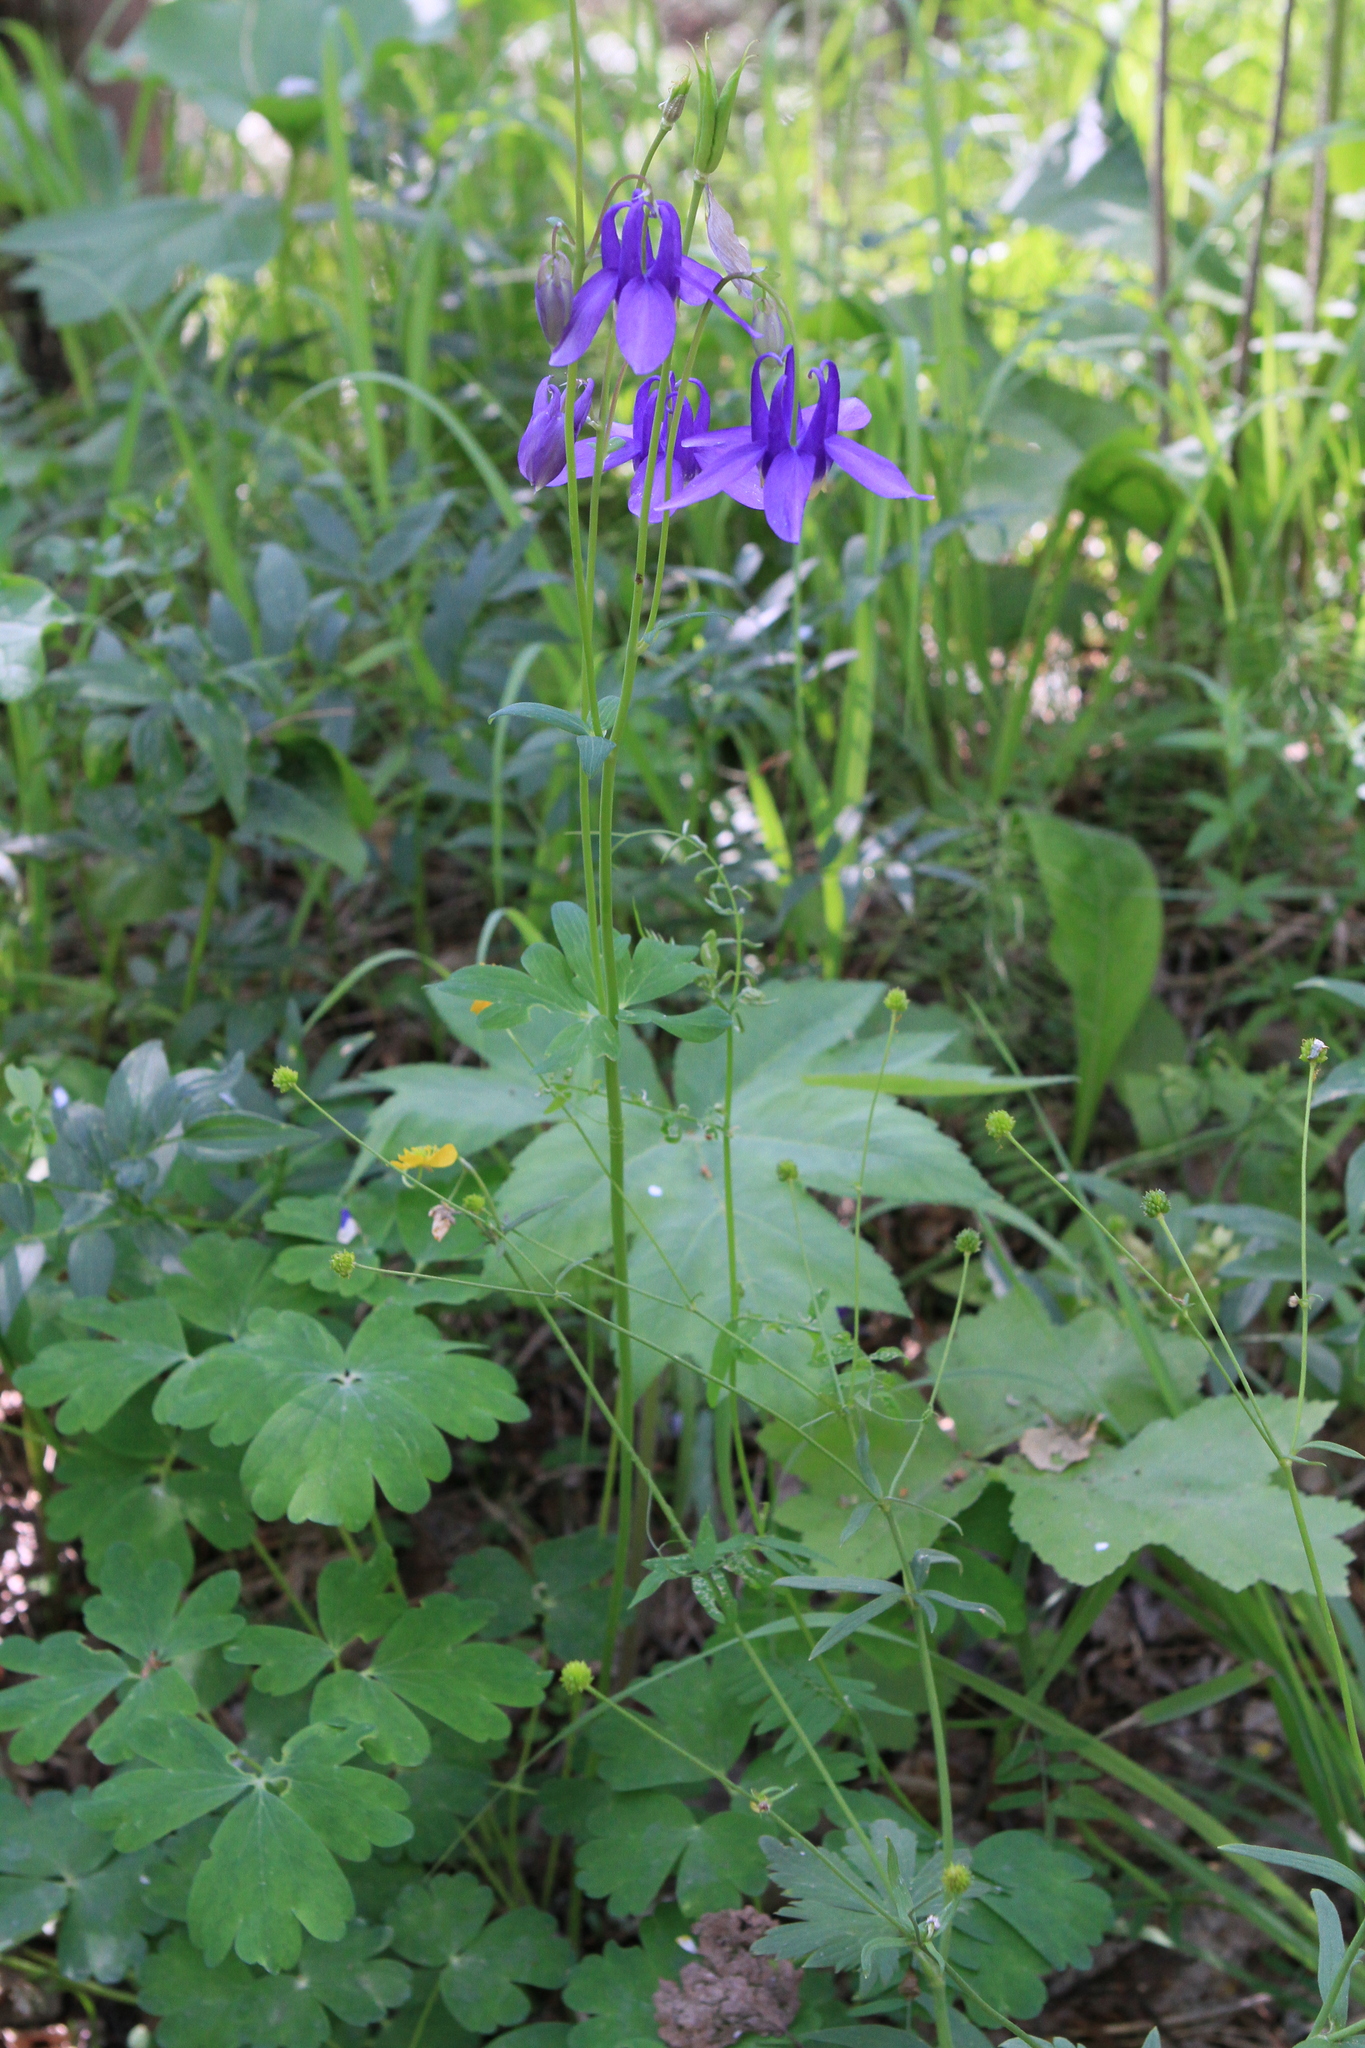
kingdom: Plantae
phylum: Tracheophyta
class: Magnoliopsida
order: Ranunculales
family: Ranunculaceae
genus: Aquilegia
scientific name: Aquilegia sibirica
